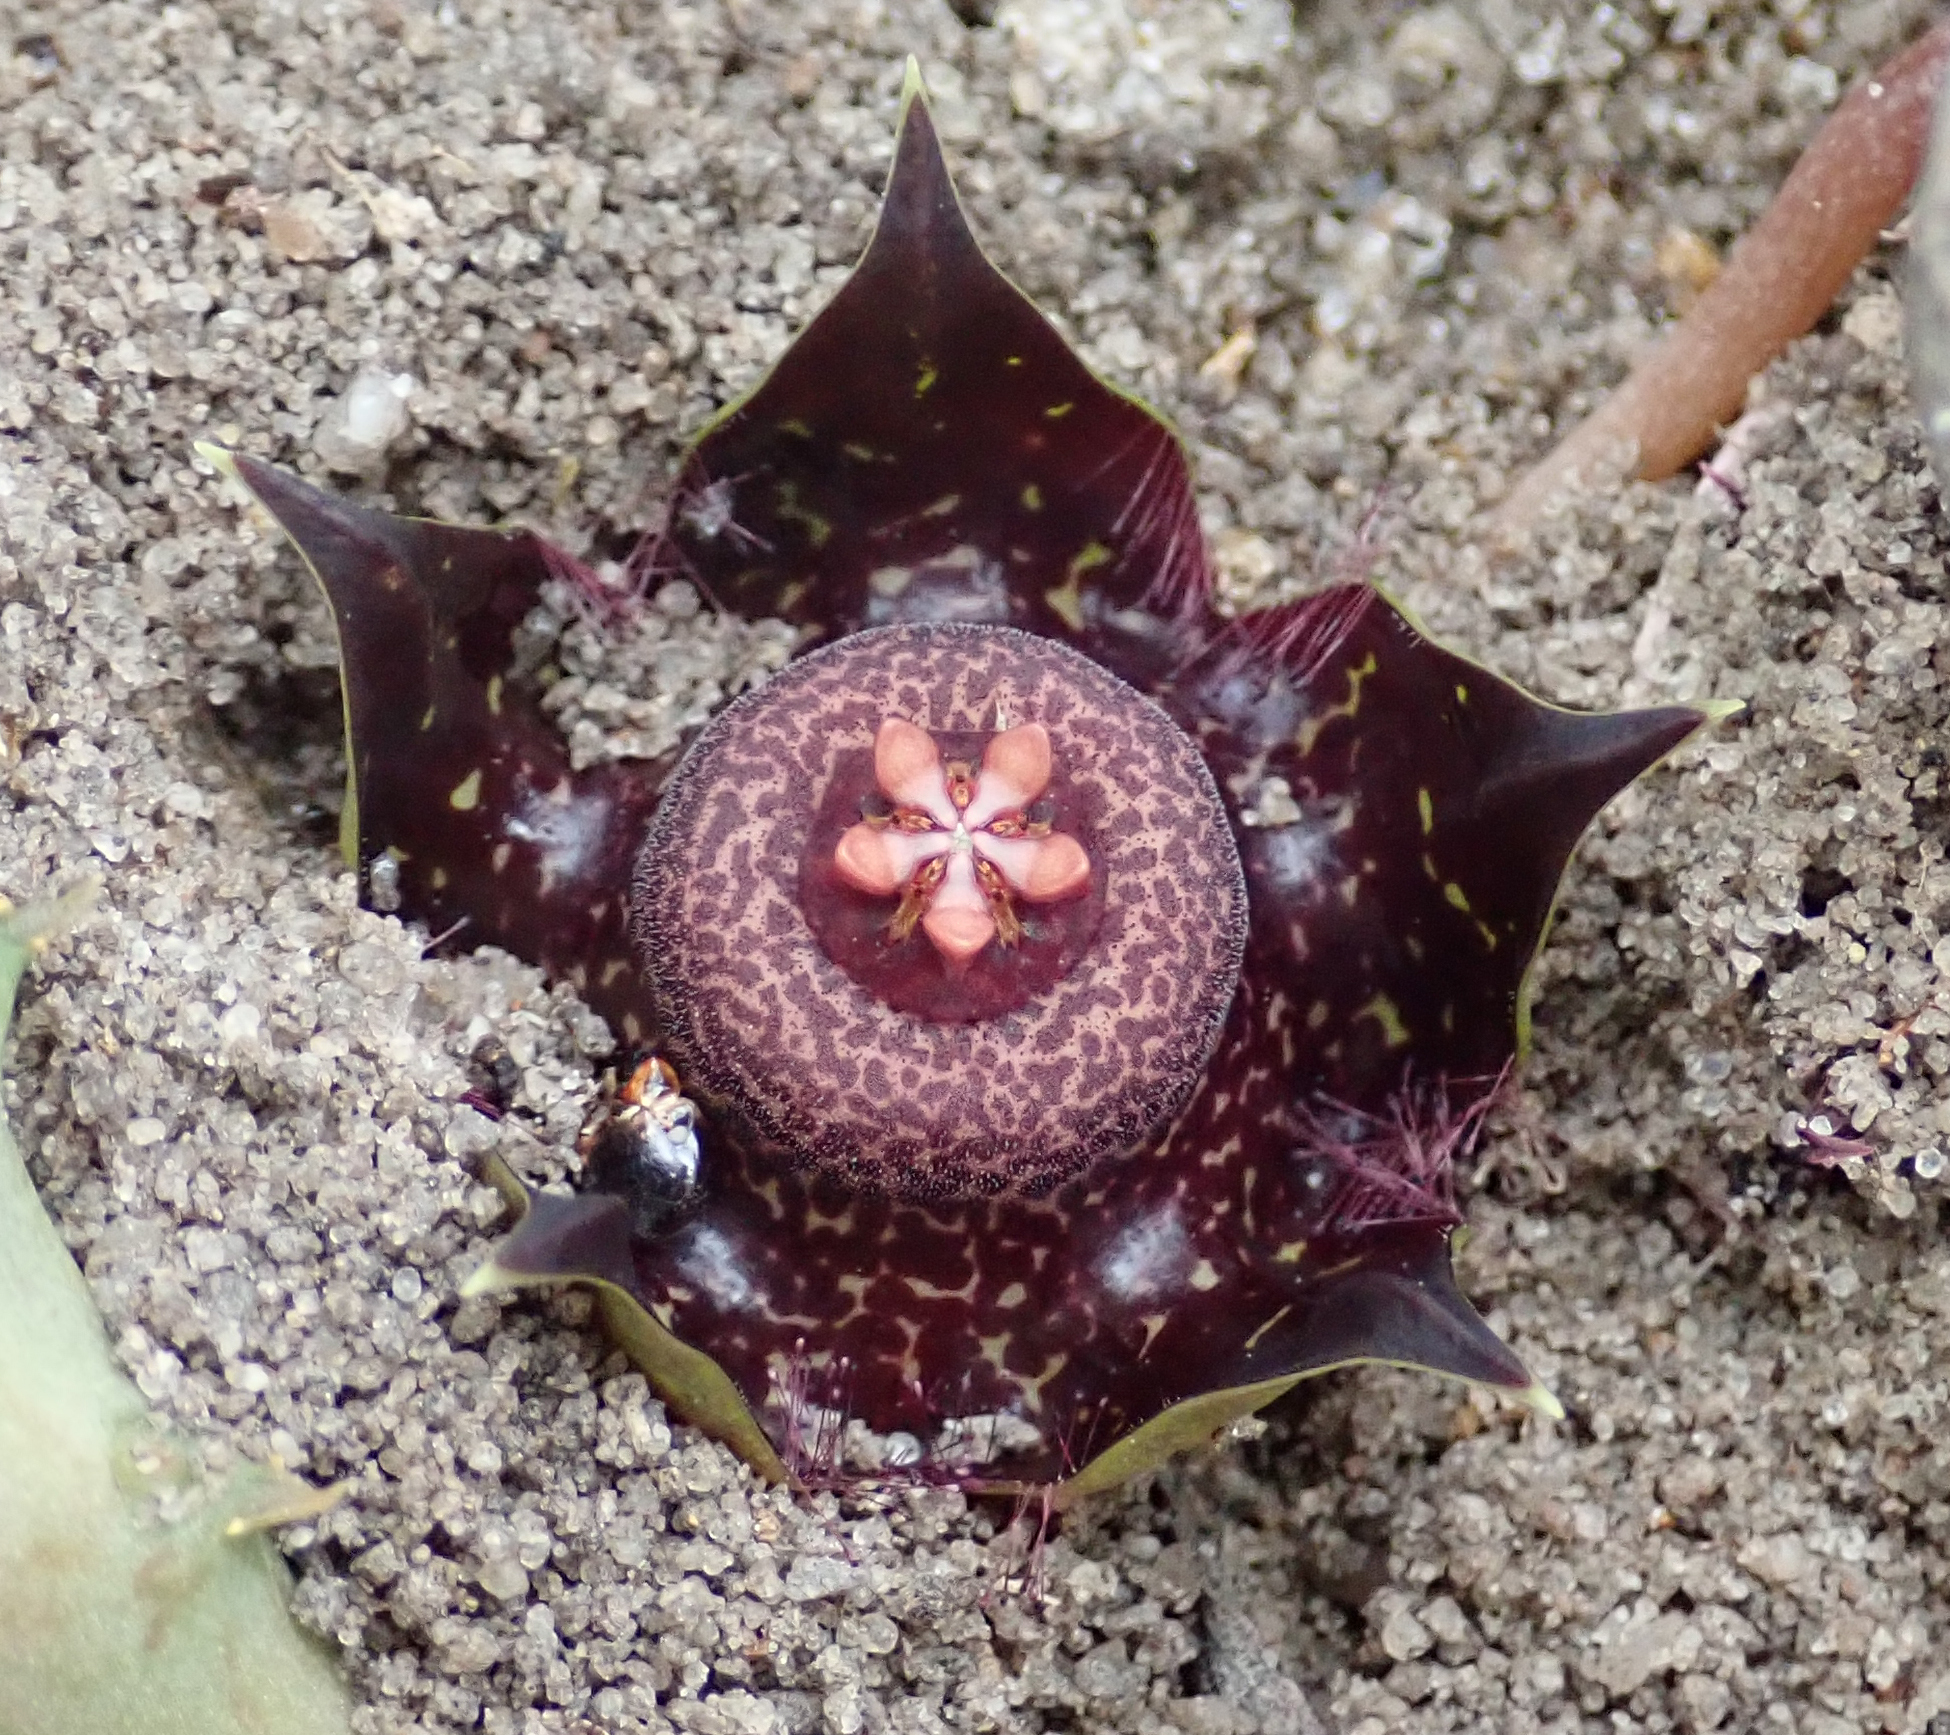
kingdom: Plantae
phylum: Tracheophyta
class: Magnoliopsida
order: Gentianales
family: Apocynaceae
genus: Ceropegia
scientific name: Ceropegia polita
